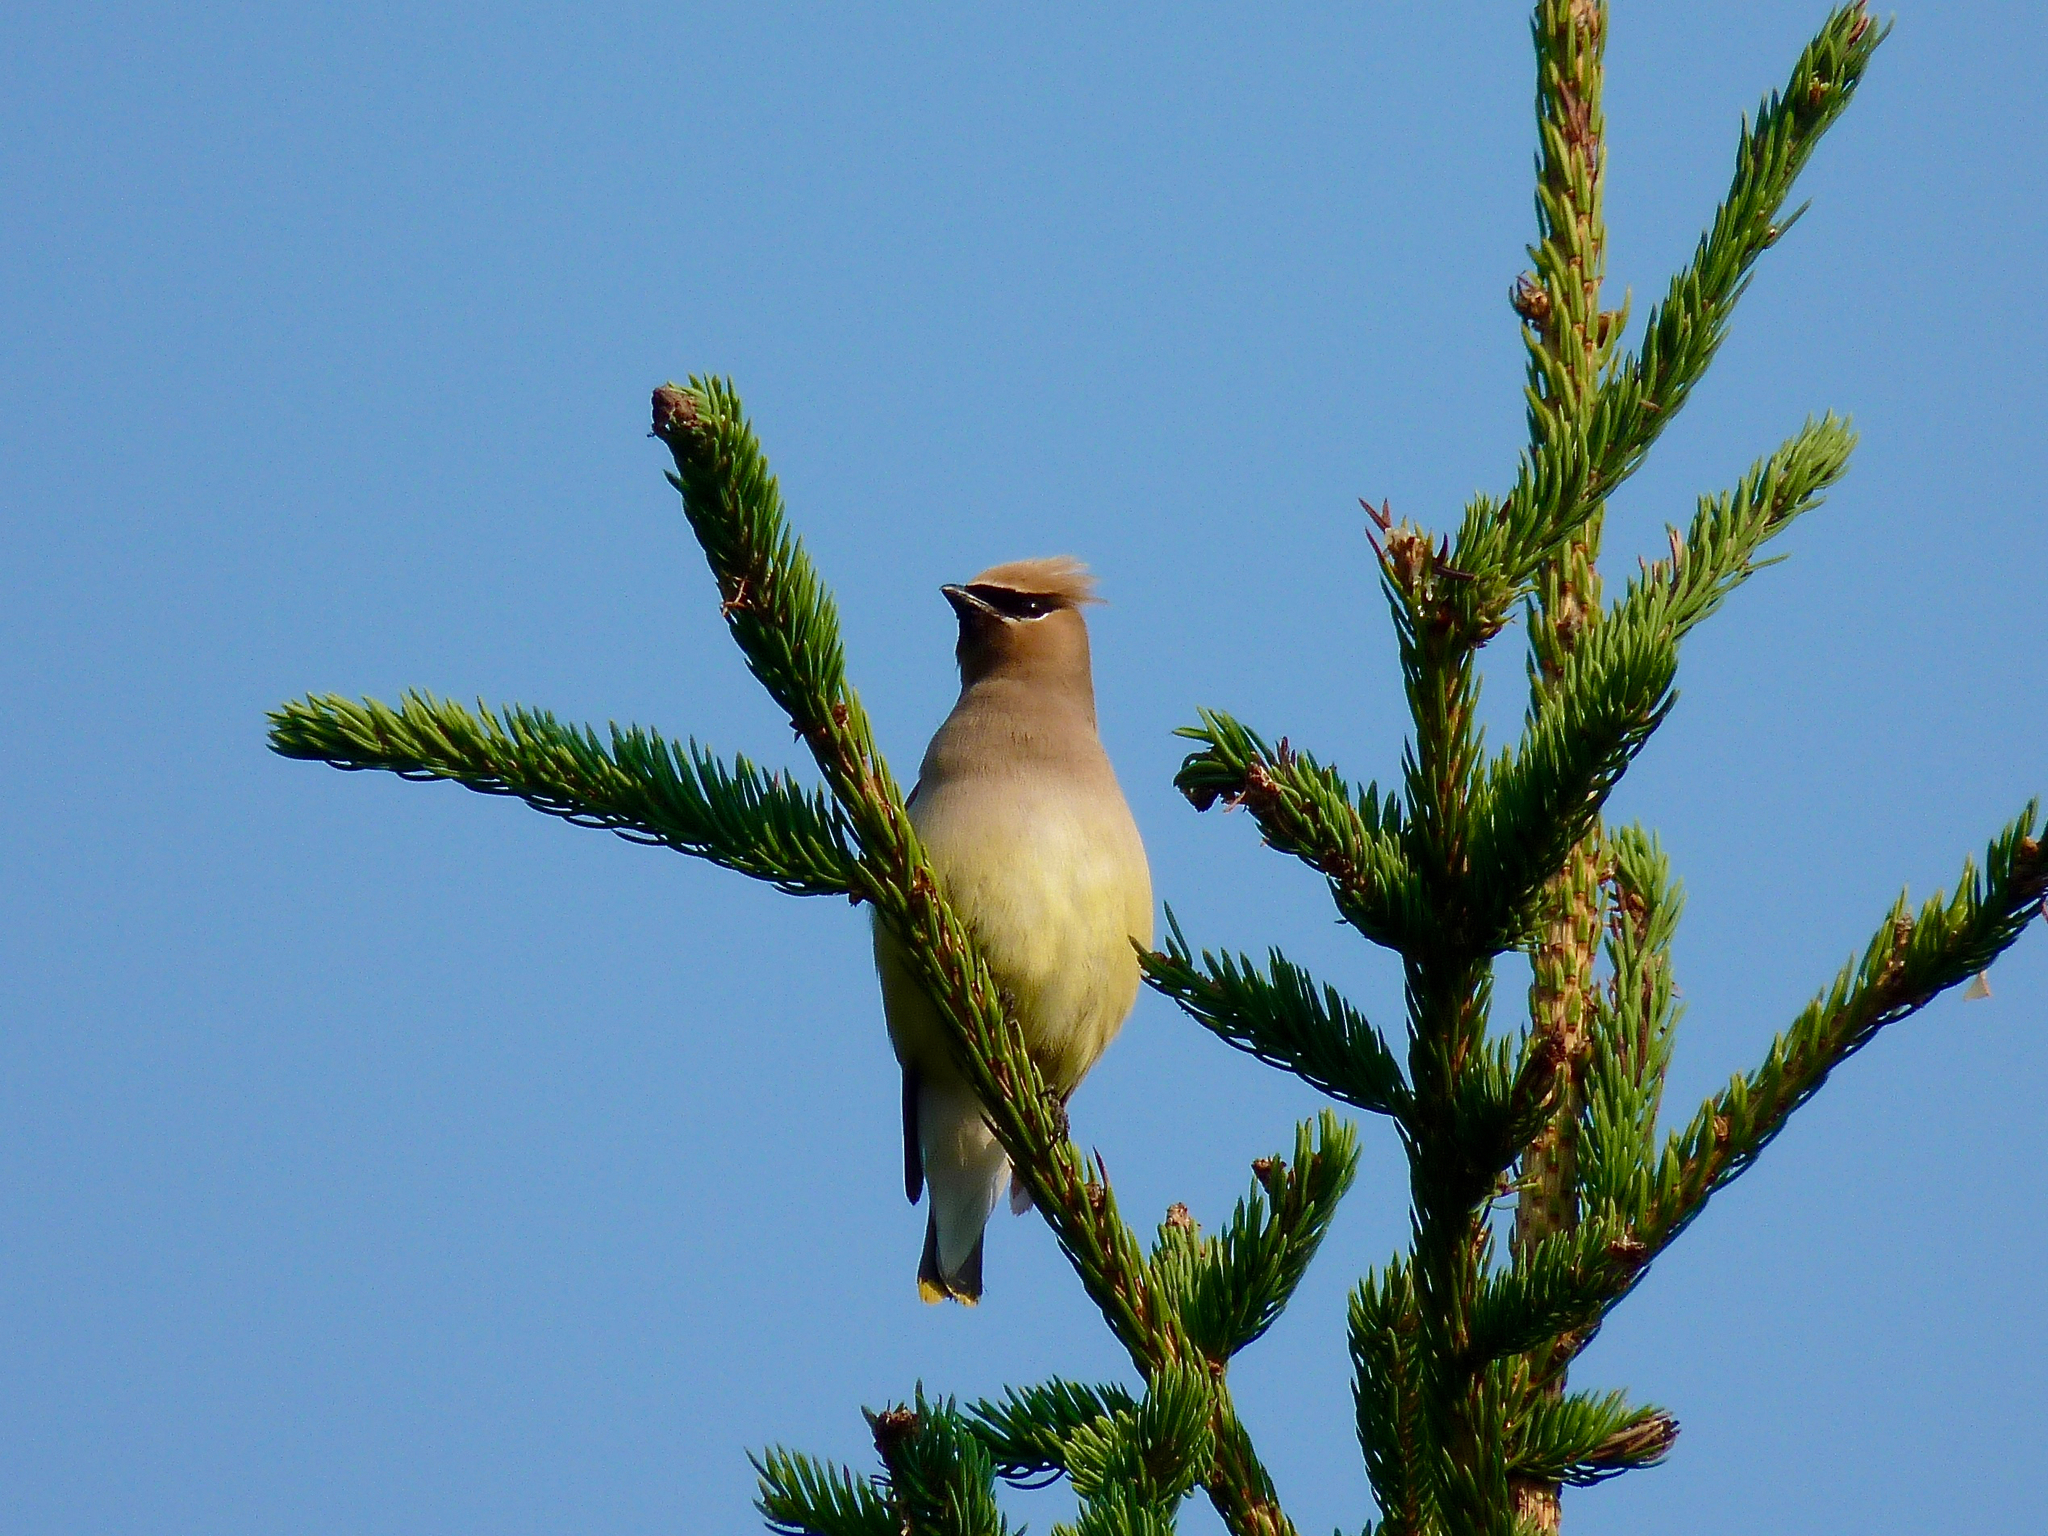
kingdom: Animalia
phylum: Chordata
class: Aves
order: Passeriformes
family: Bombycillidae
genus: Bombycilla
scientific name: Bombycilla cedrorum
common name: Cedar waxwing
